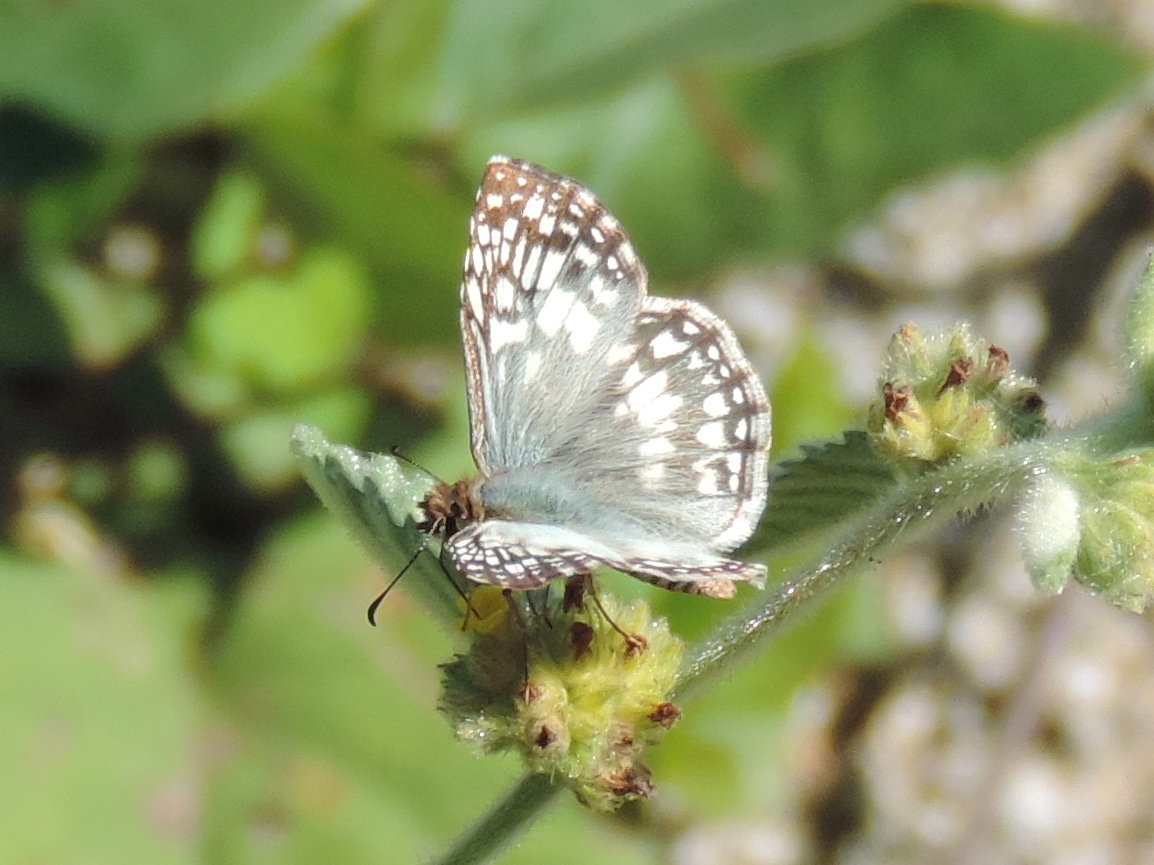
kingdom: Animalia
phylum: Arthropoda
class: Insecta
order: Lepidoptera
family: Hesperiidae
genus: Burnsius
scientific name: Burnsius
